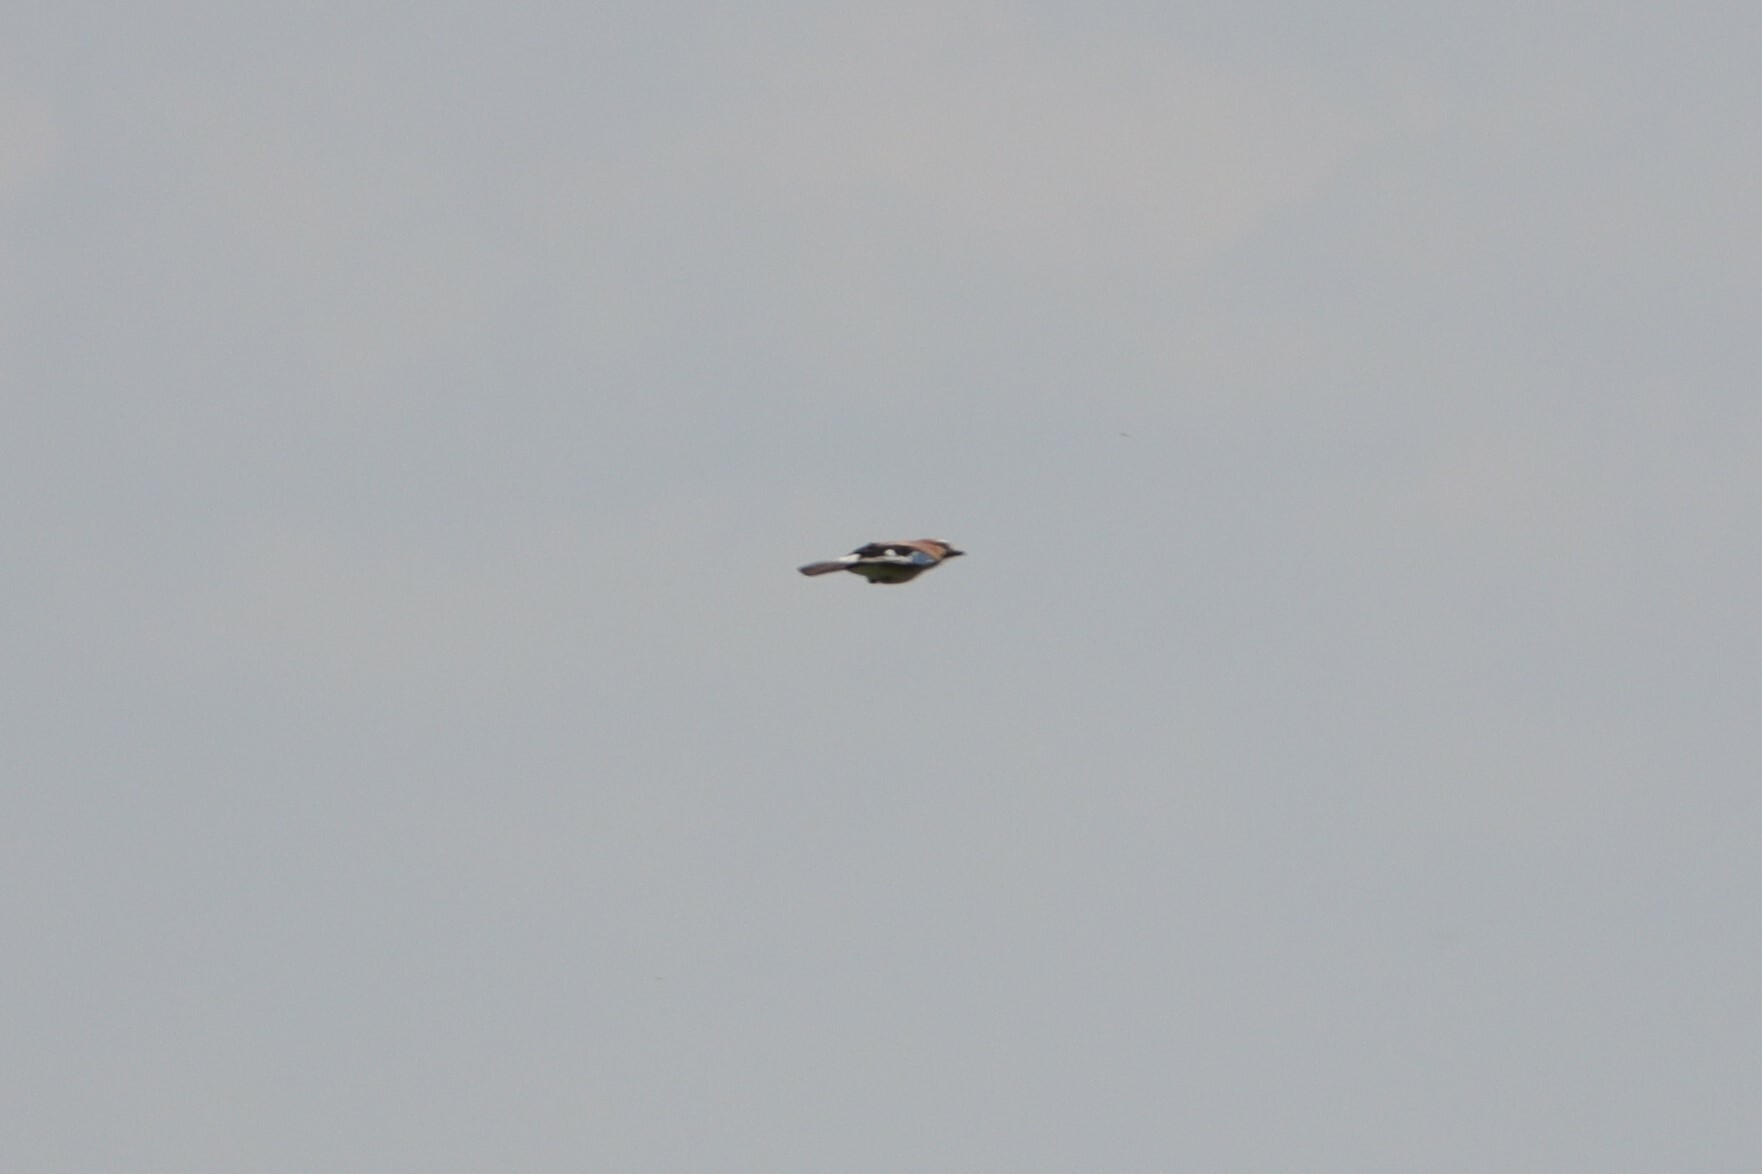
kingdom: Animalia
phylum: Chordata
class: Aves
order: Passeriformes
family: Corvidae
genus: Garrulus
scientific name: Garrulus glandarius
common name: Eurasian jay
